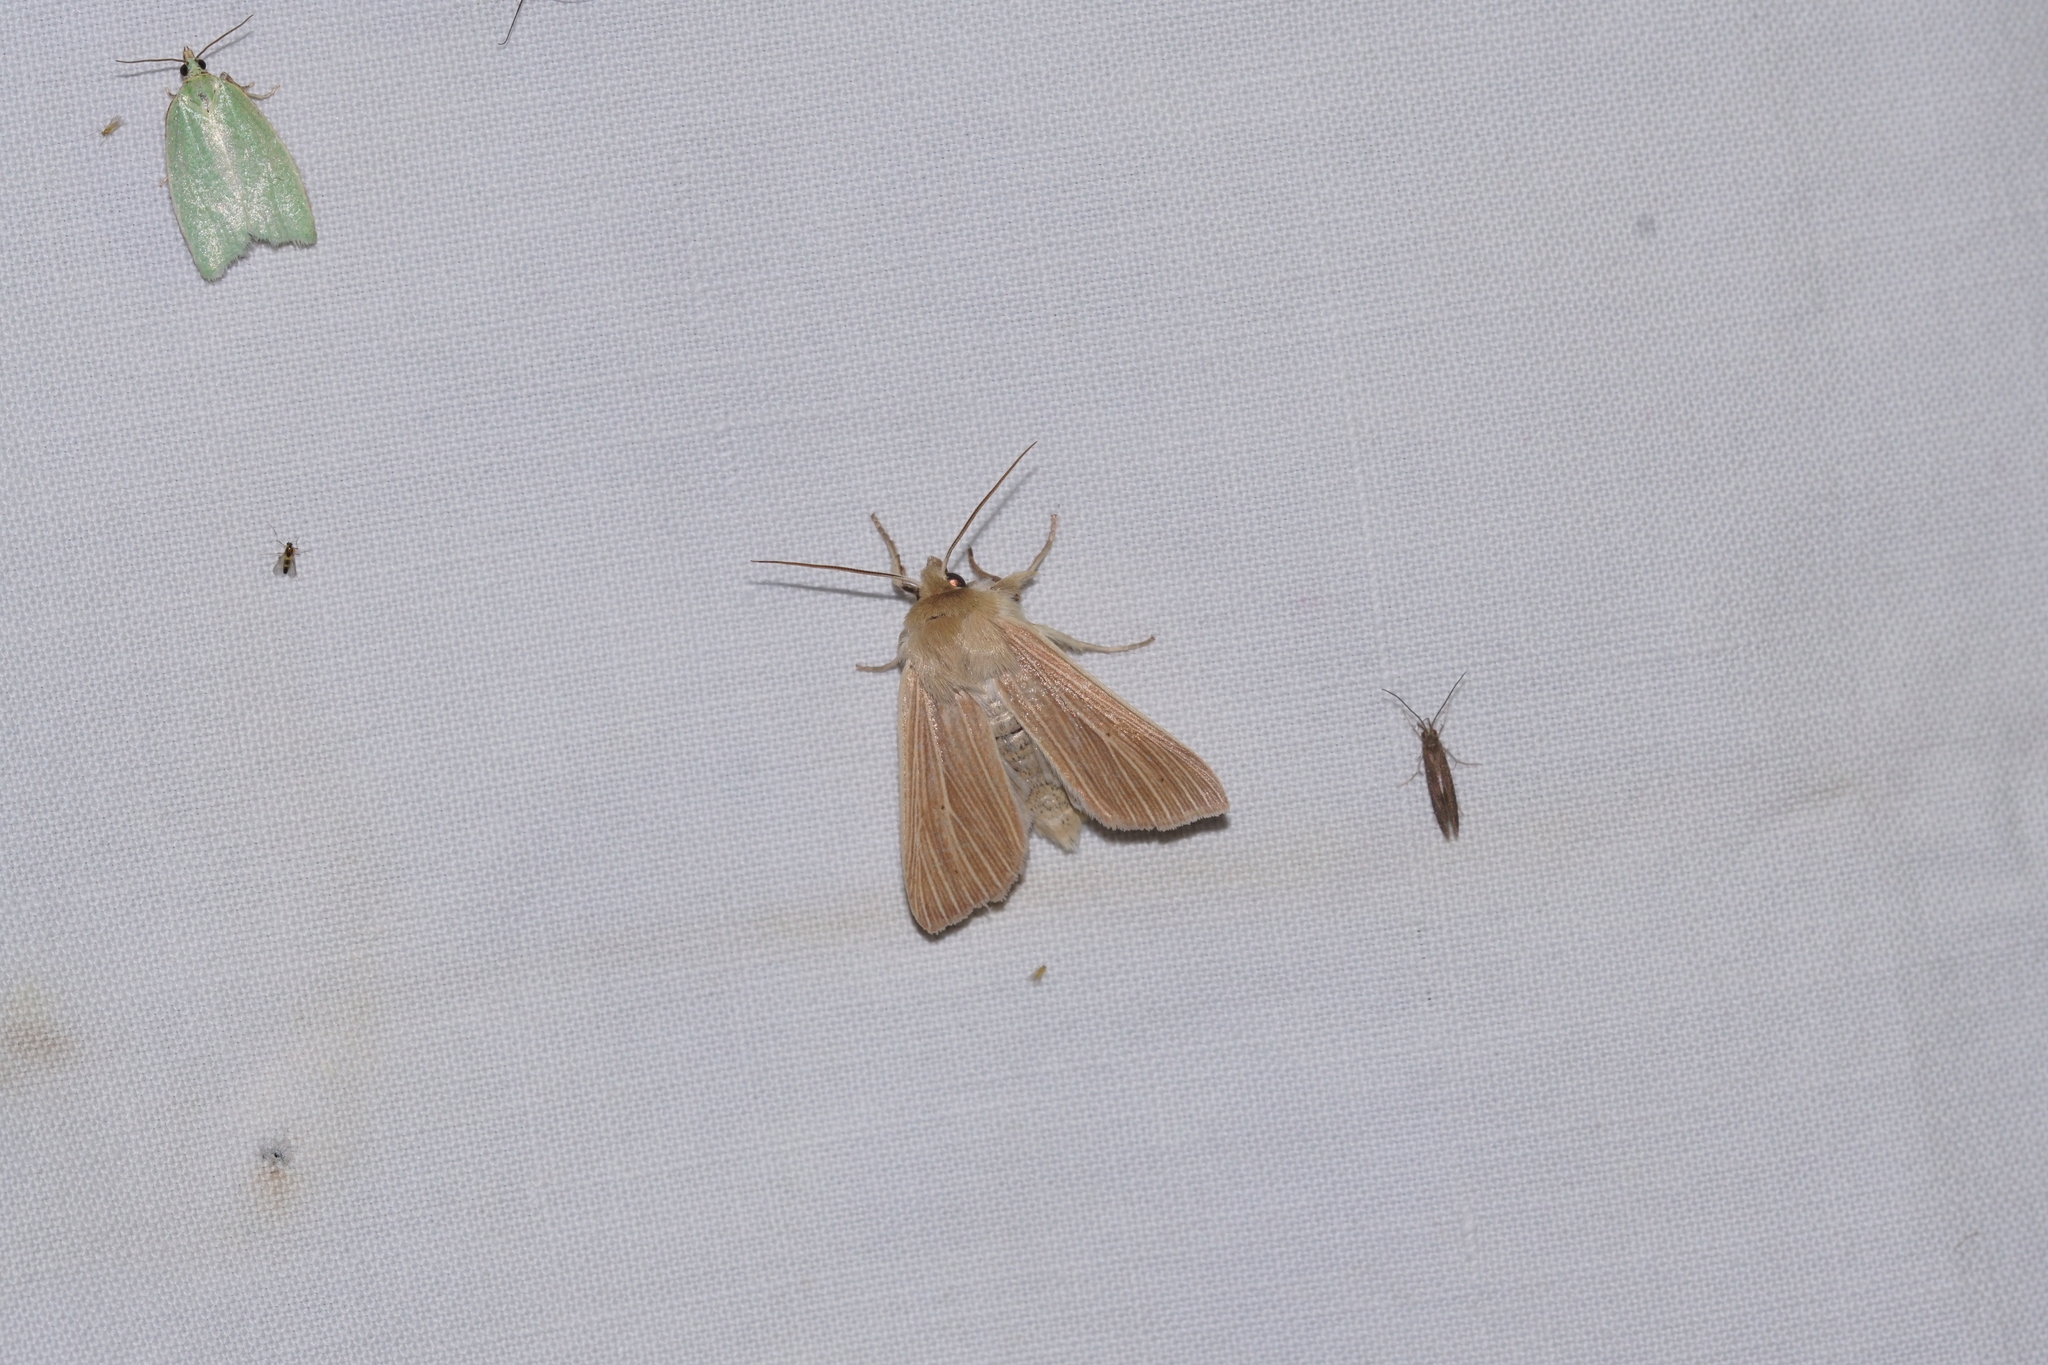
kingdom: Animalia
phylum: Arthropoda
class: Insecta
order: Lepidoptera
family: Noctuidae
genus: Mythimna
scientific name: Mythimna pallens
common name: Common wainscot
